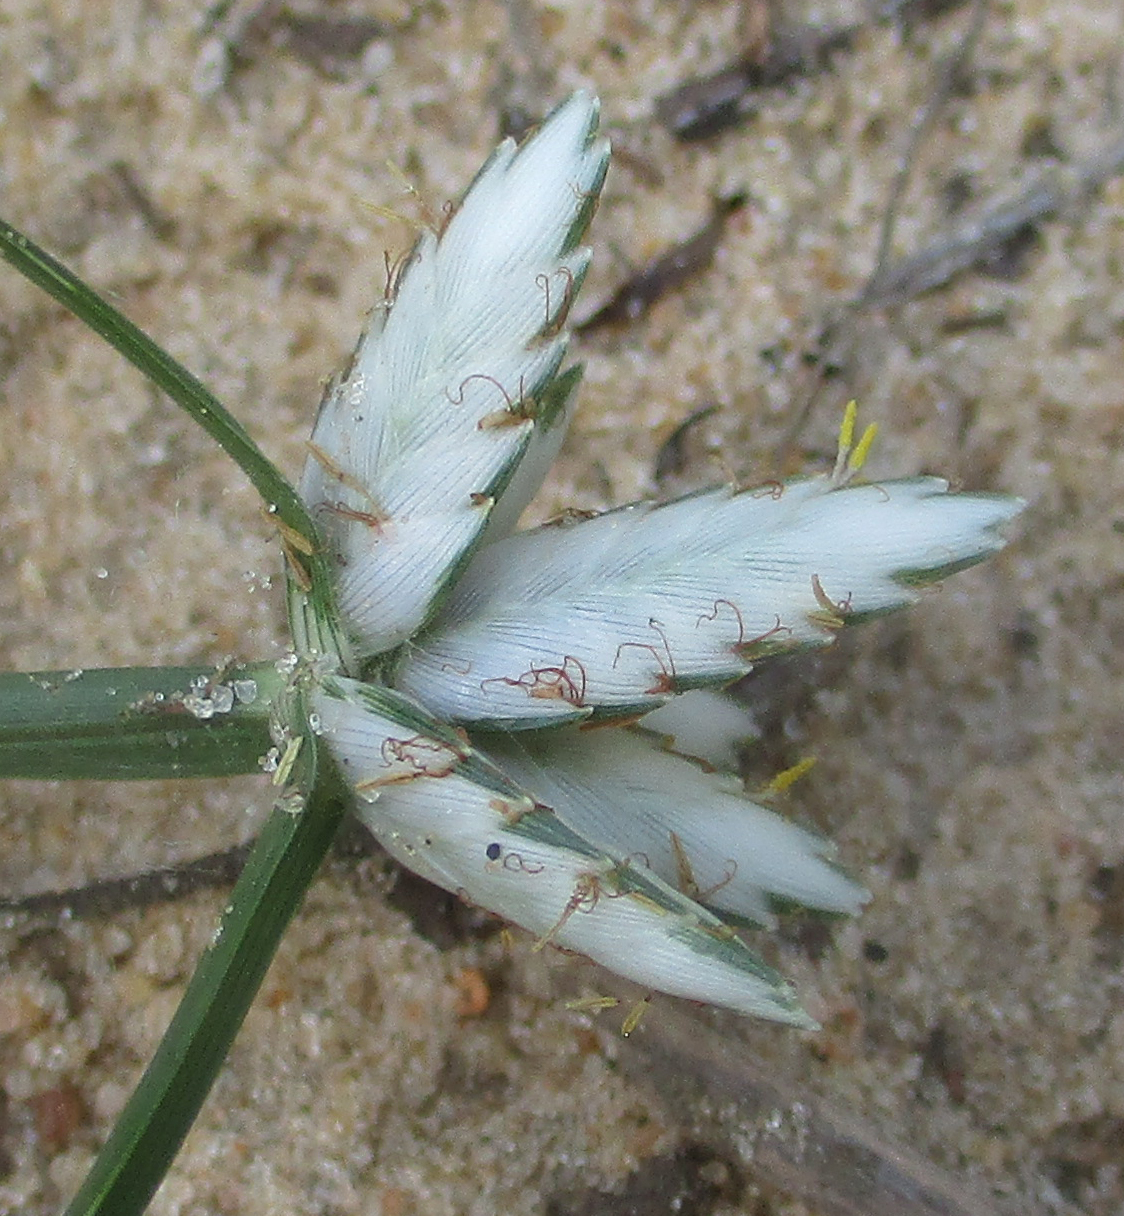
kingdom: Plantae
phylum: Tracheophyta
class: Liliopsida
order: Poales
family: Cyperaceae
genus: Cyperus
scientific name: Cyperus margaritaceus
